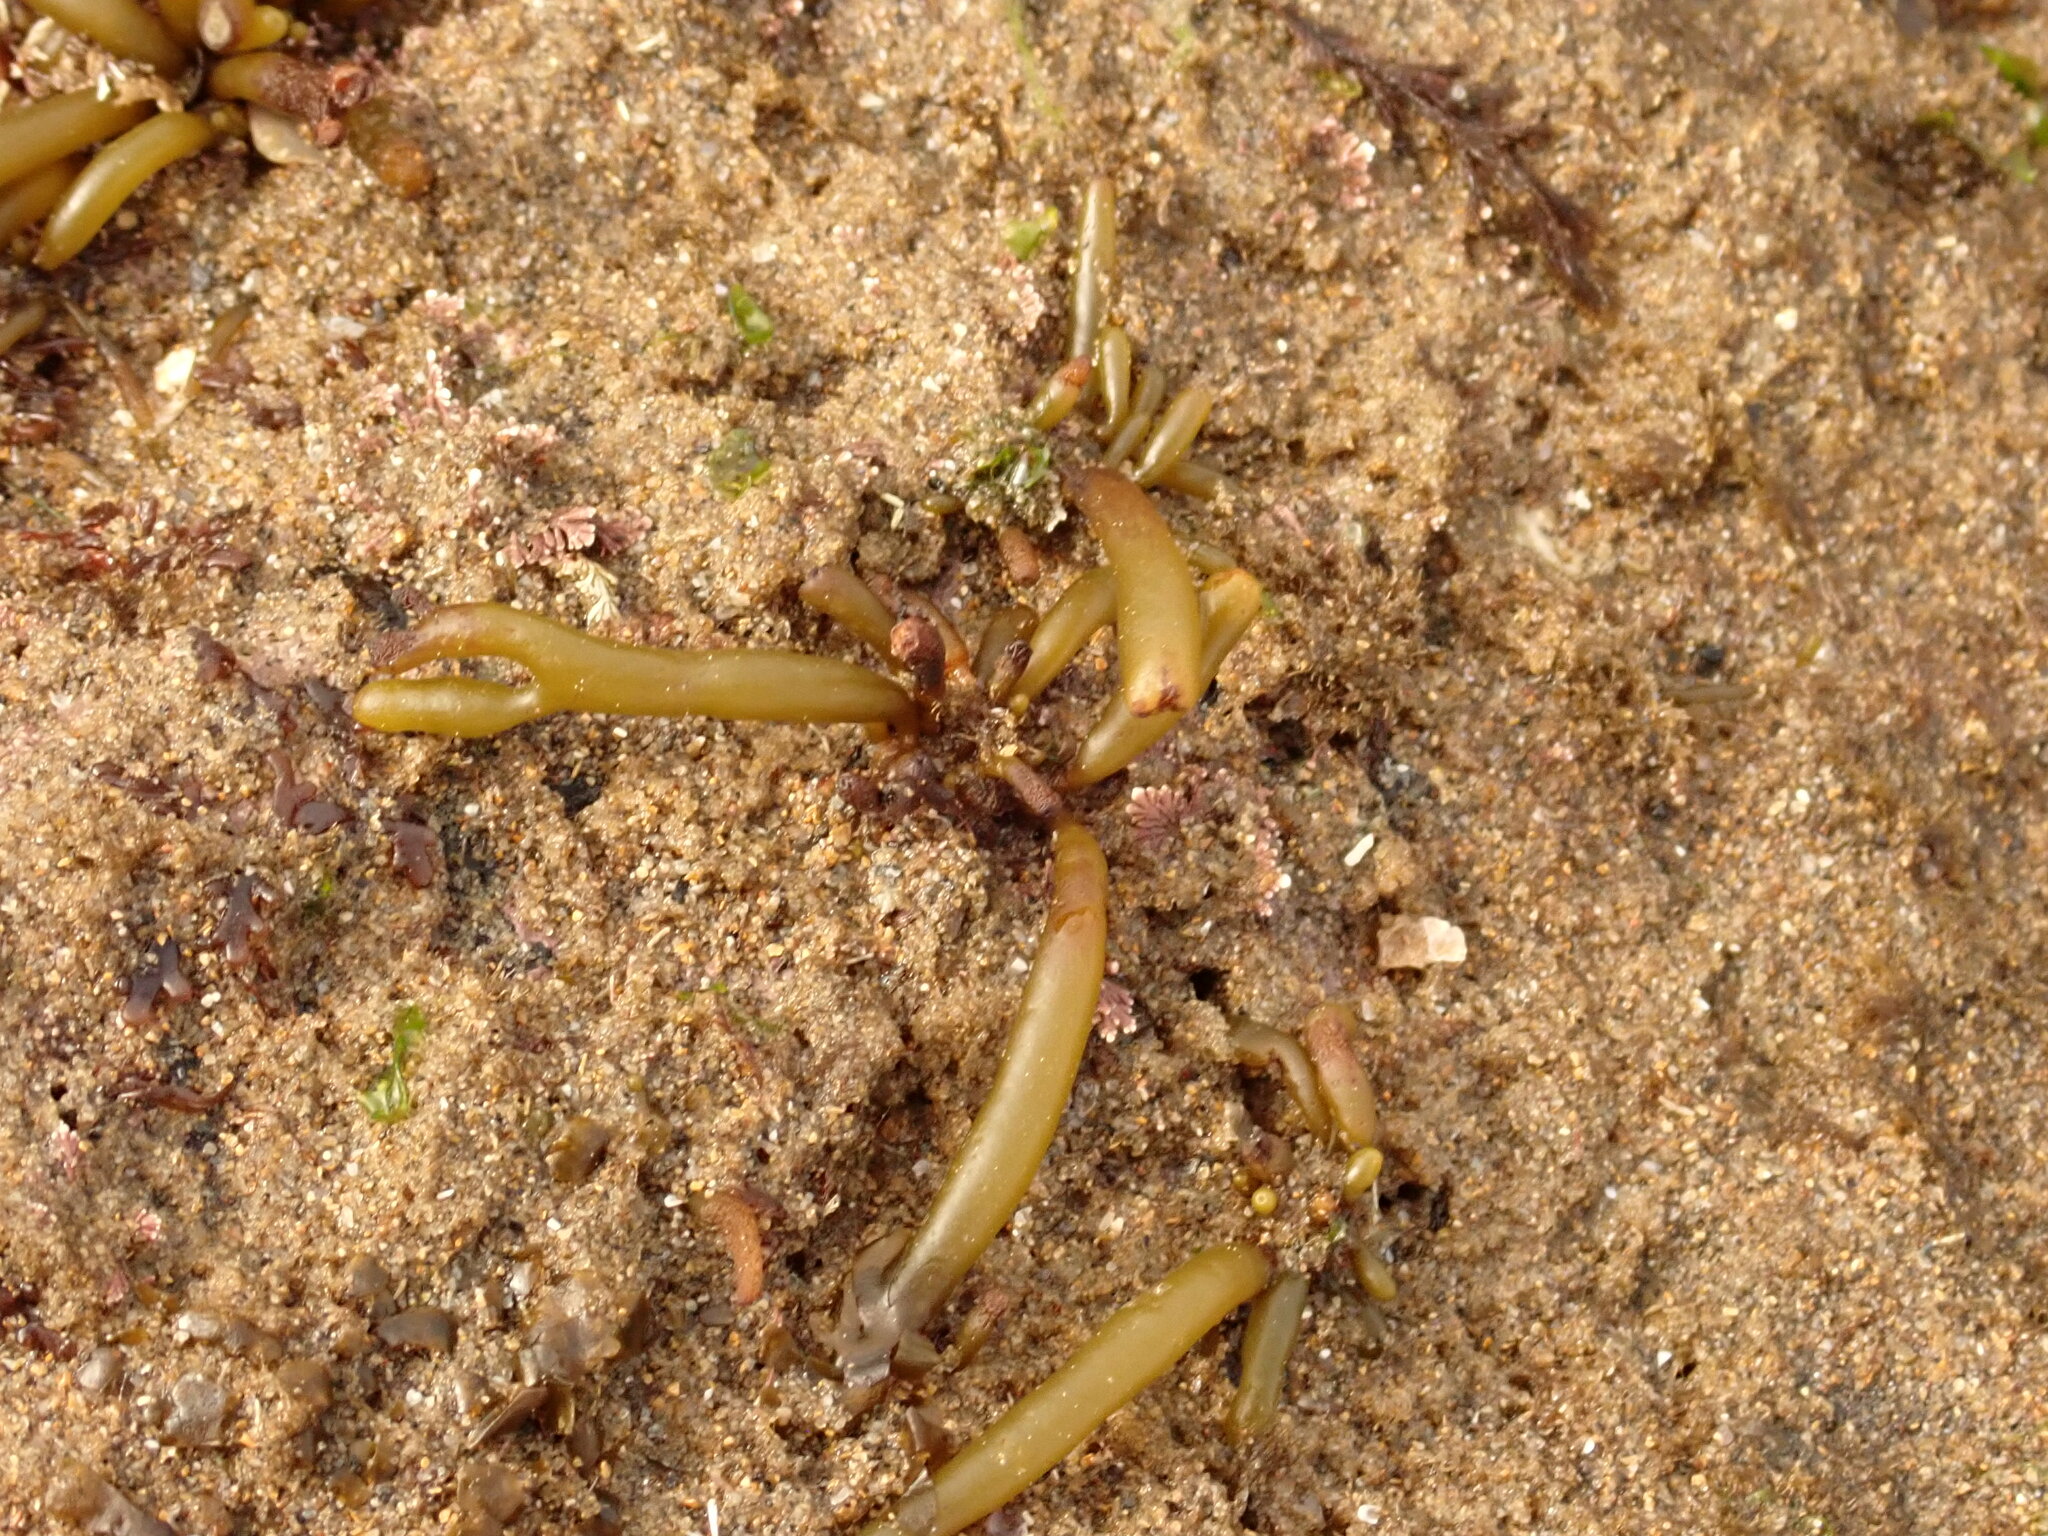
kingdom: Chromista
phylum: Ochrophyta
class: Phaeophyceae
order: Fucales
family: Sargassaceae
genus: Bifurcaria
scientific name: Bifurcaria bifurcata
